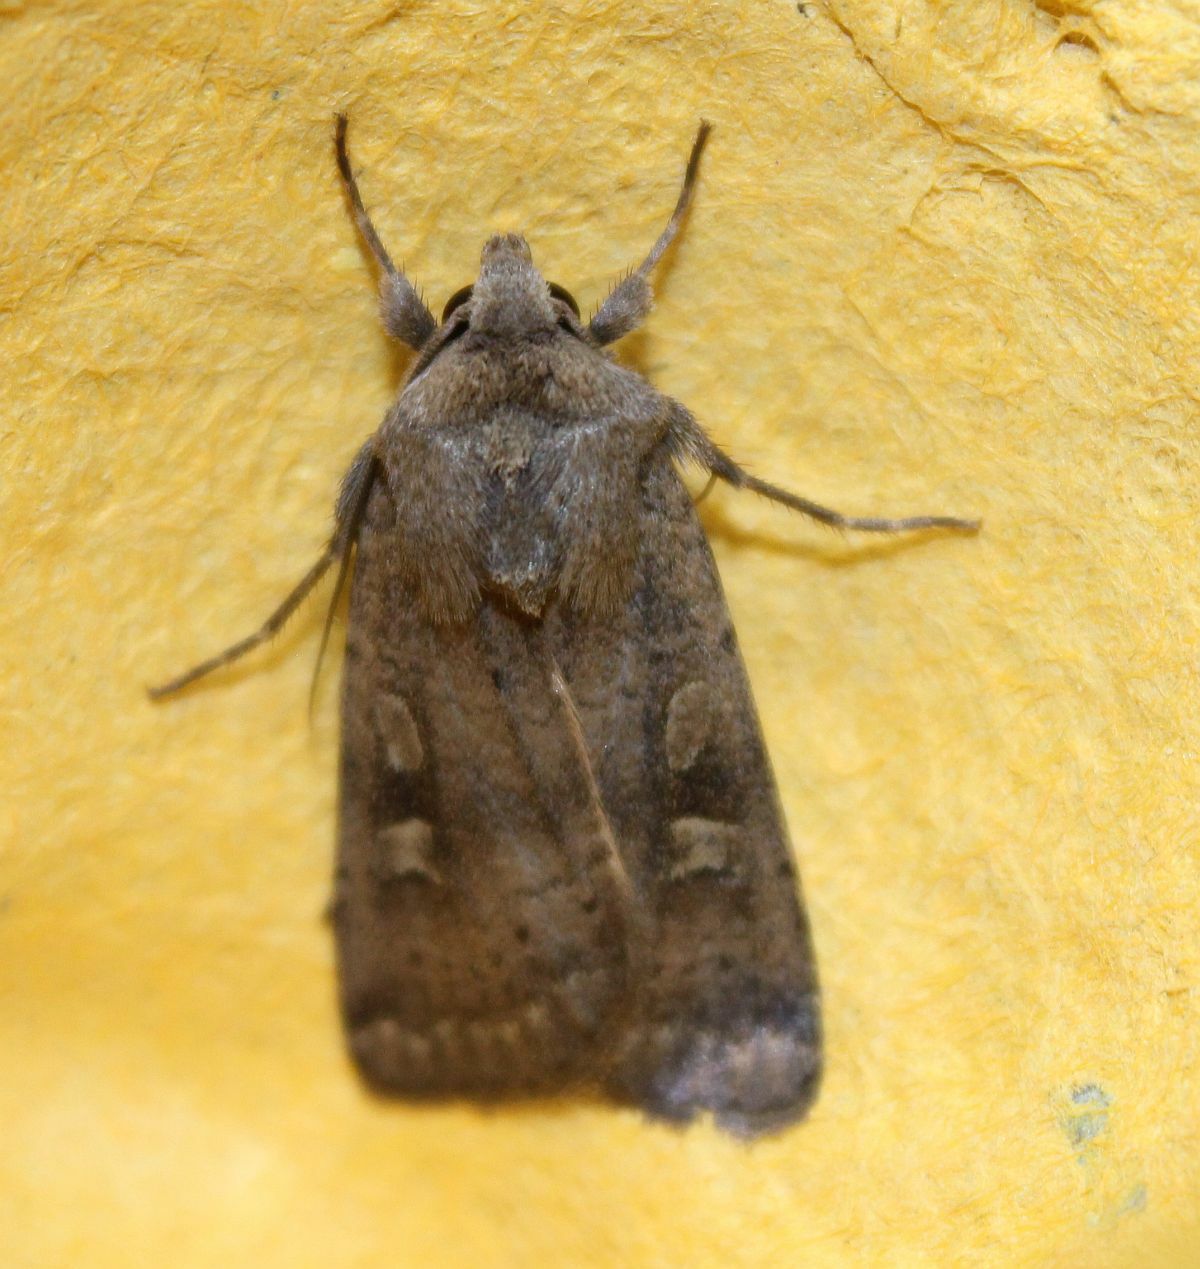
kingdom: Animalia
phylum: Arthropoda
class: Insecta
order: Lepidoptera
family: Noctuidae
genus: Xestia
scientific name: Xestia xanthographa
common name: Square-spot rustic
